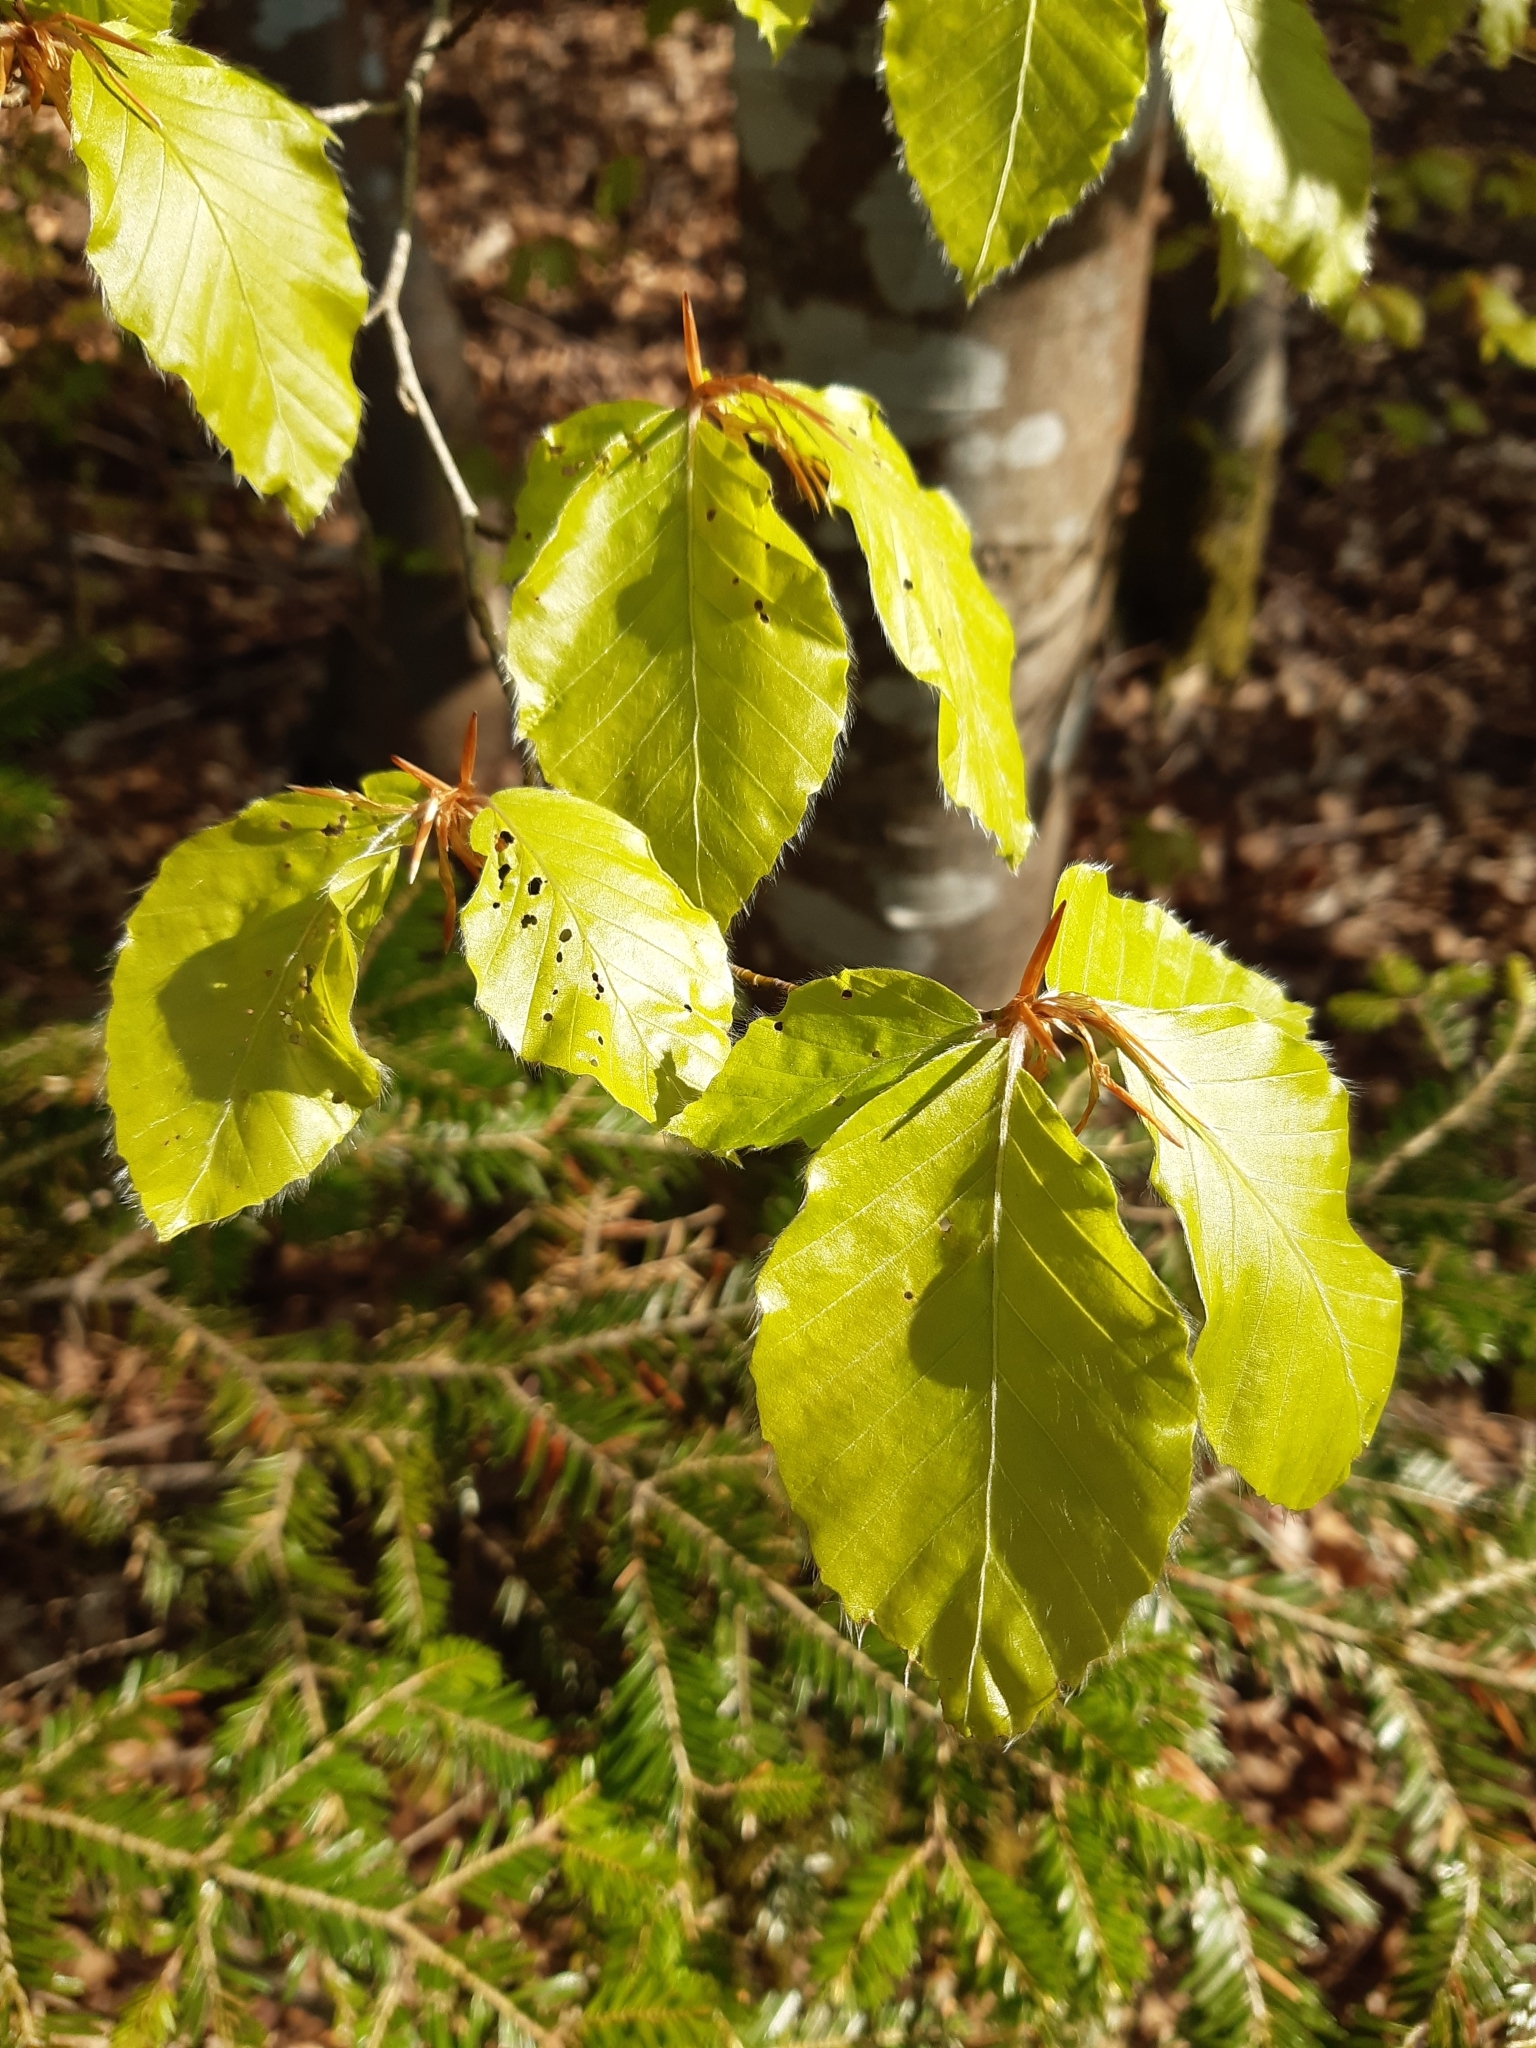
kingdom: Plantae
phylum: Tracheophyta
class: Magnoliopsida
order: Fagales
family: Fagaceae
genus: Fagus
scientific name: Fagus sylvatica
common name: Beech
